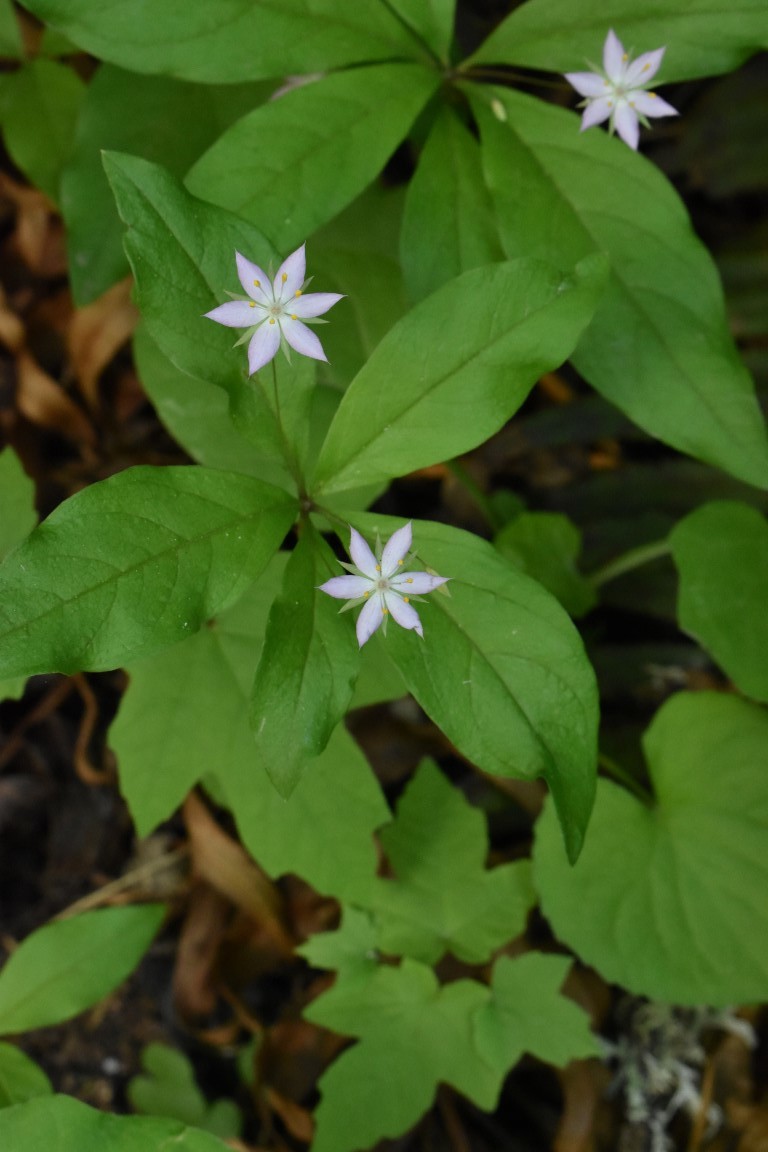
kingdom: Plantae
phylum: Tracheophyta
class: Magnoliopsida
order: Ericales
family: Primulaceae
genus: Lysimachia
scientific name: Lysimachia latifolia
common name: Pacific starflower
